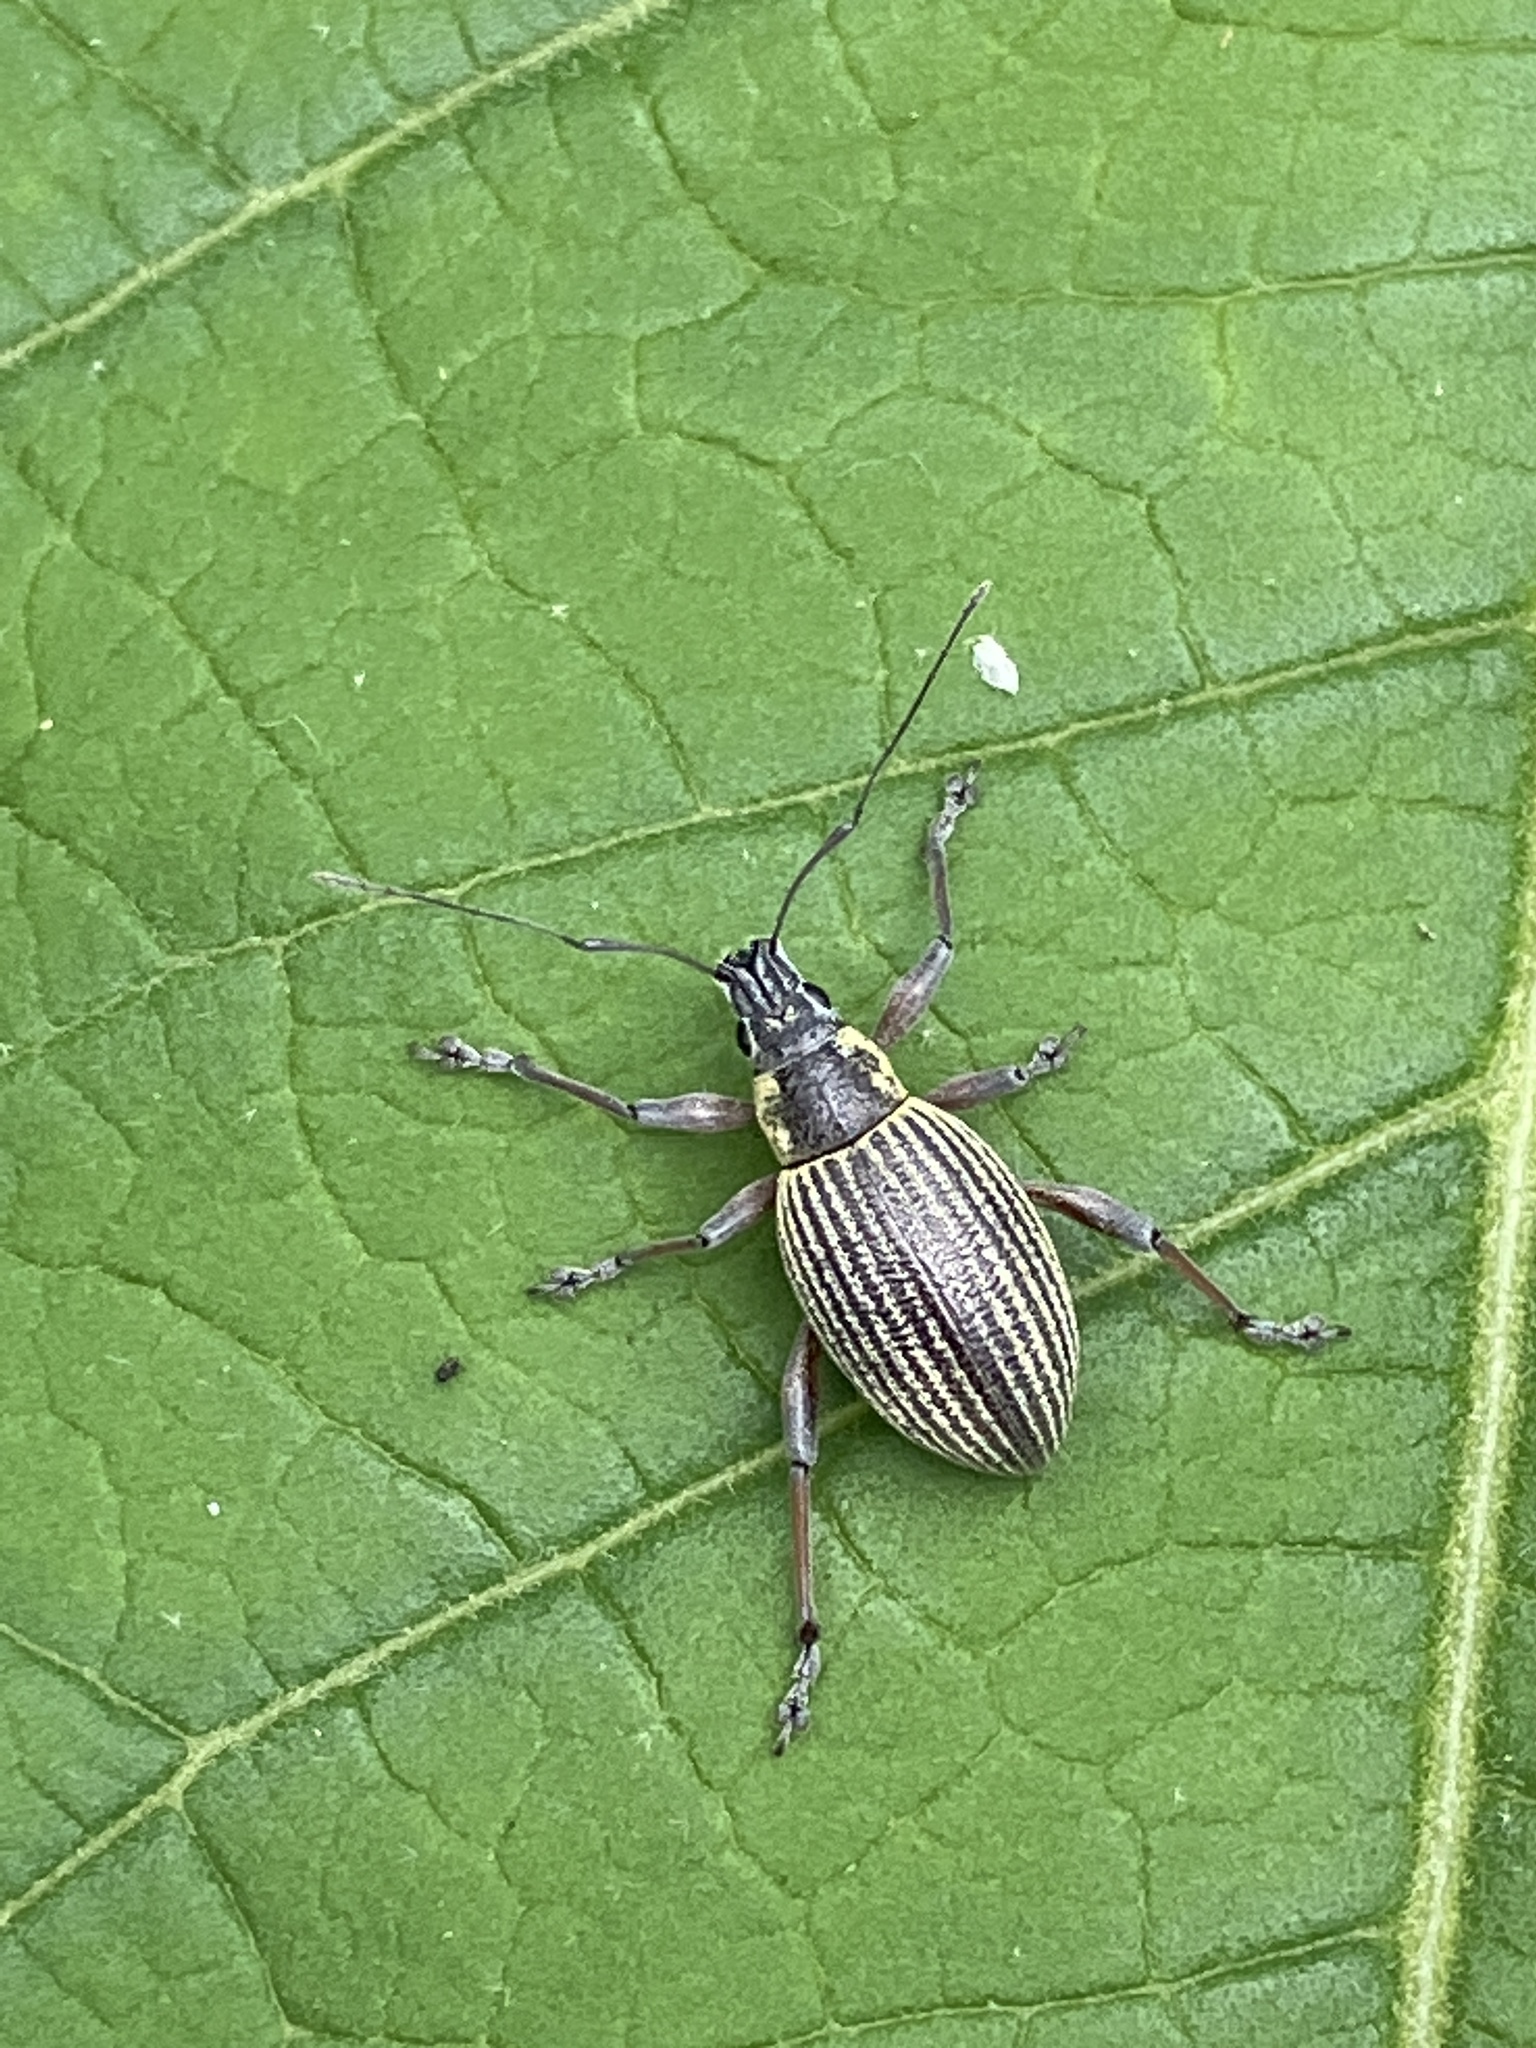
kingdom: Animalia
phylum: Arthropoda
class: Insecta
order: Coleoptera
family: Curculionidae
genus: Sciobius
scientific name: Sciobius tottus
